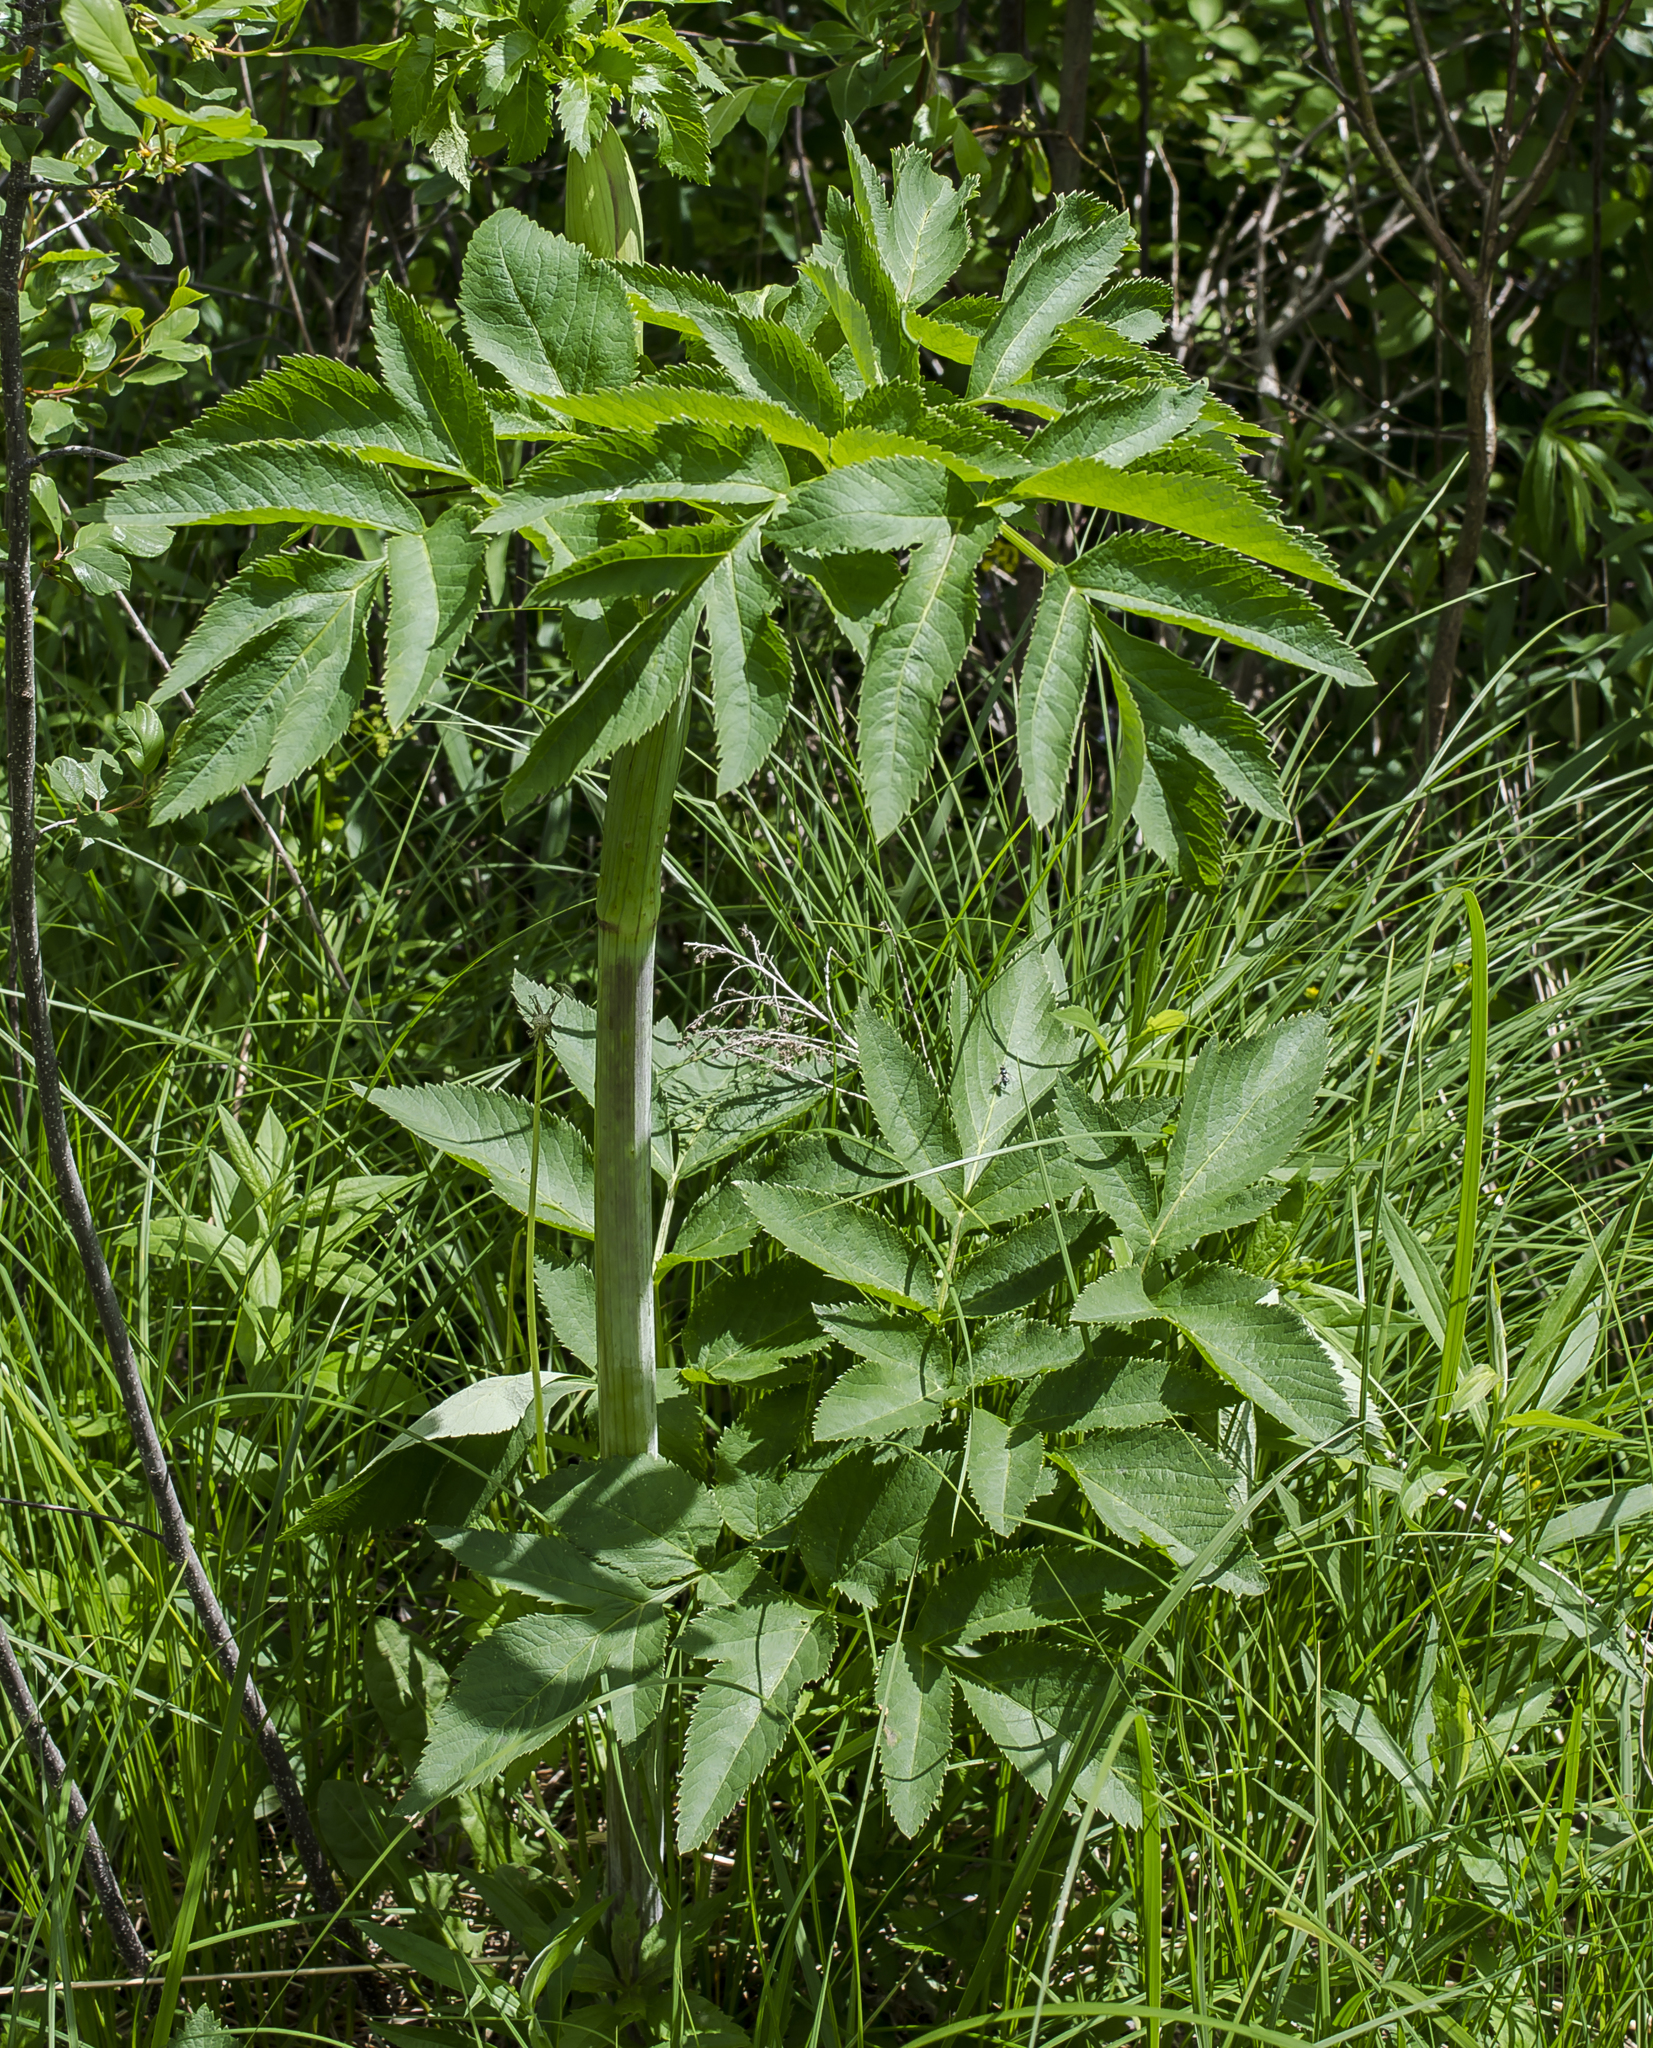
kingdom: Plantae
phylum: Tracheophyta
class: Magnoliopsida
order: Apiales
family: Apiaceae
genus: Angelica
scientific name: Angelica atropurpurea
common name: Great angelica
